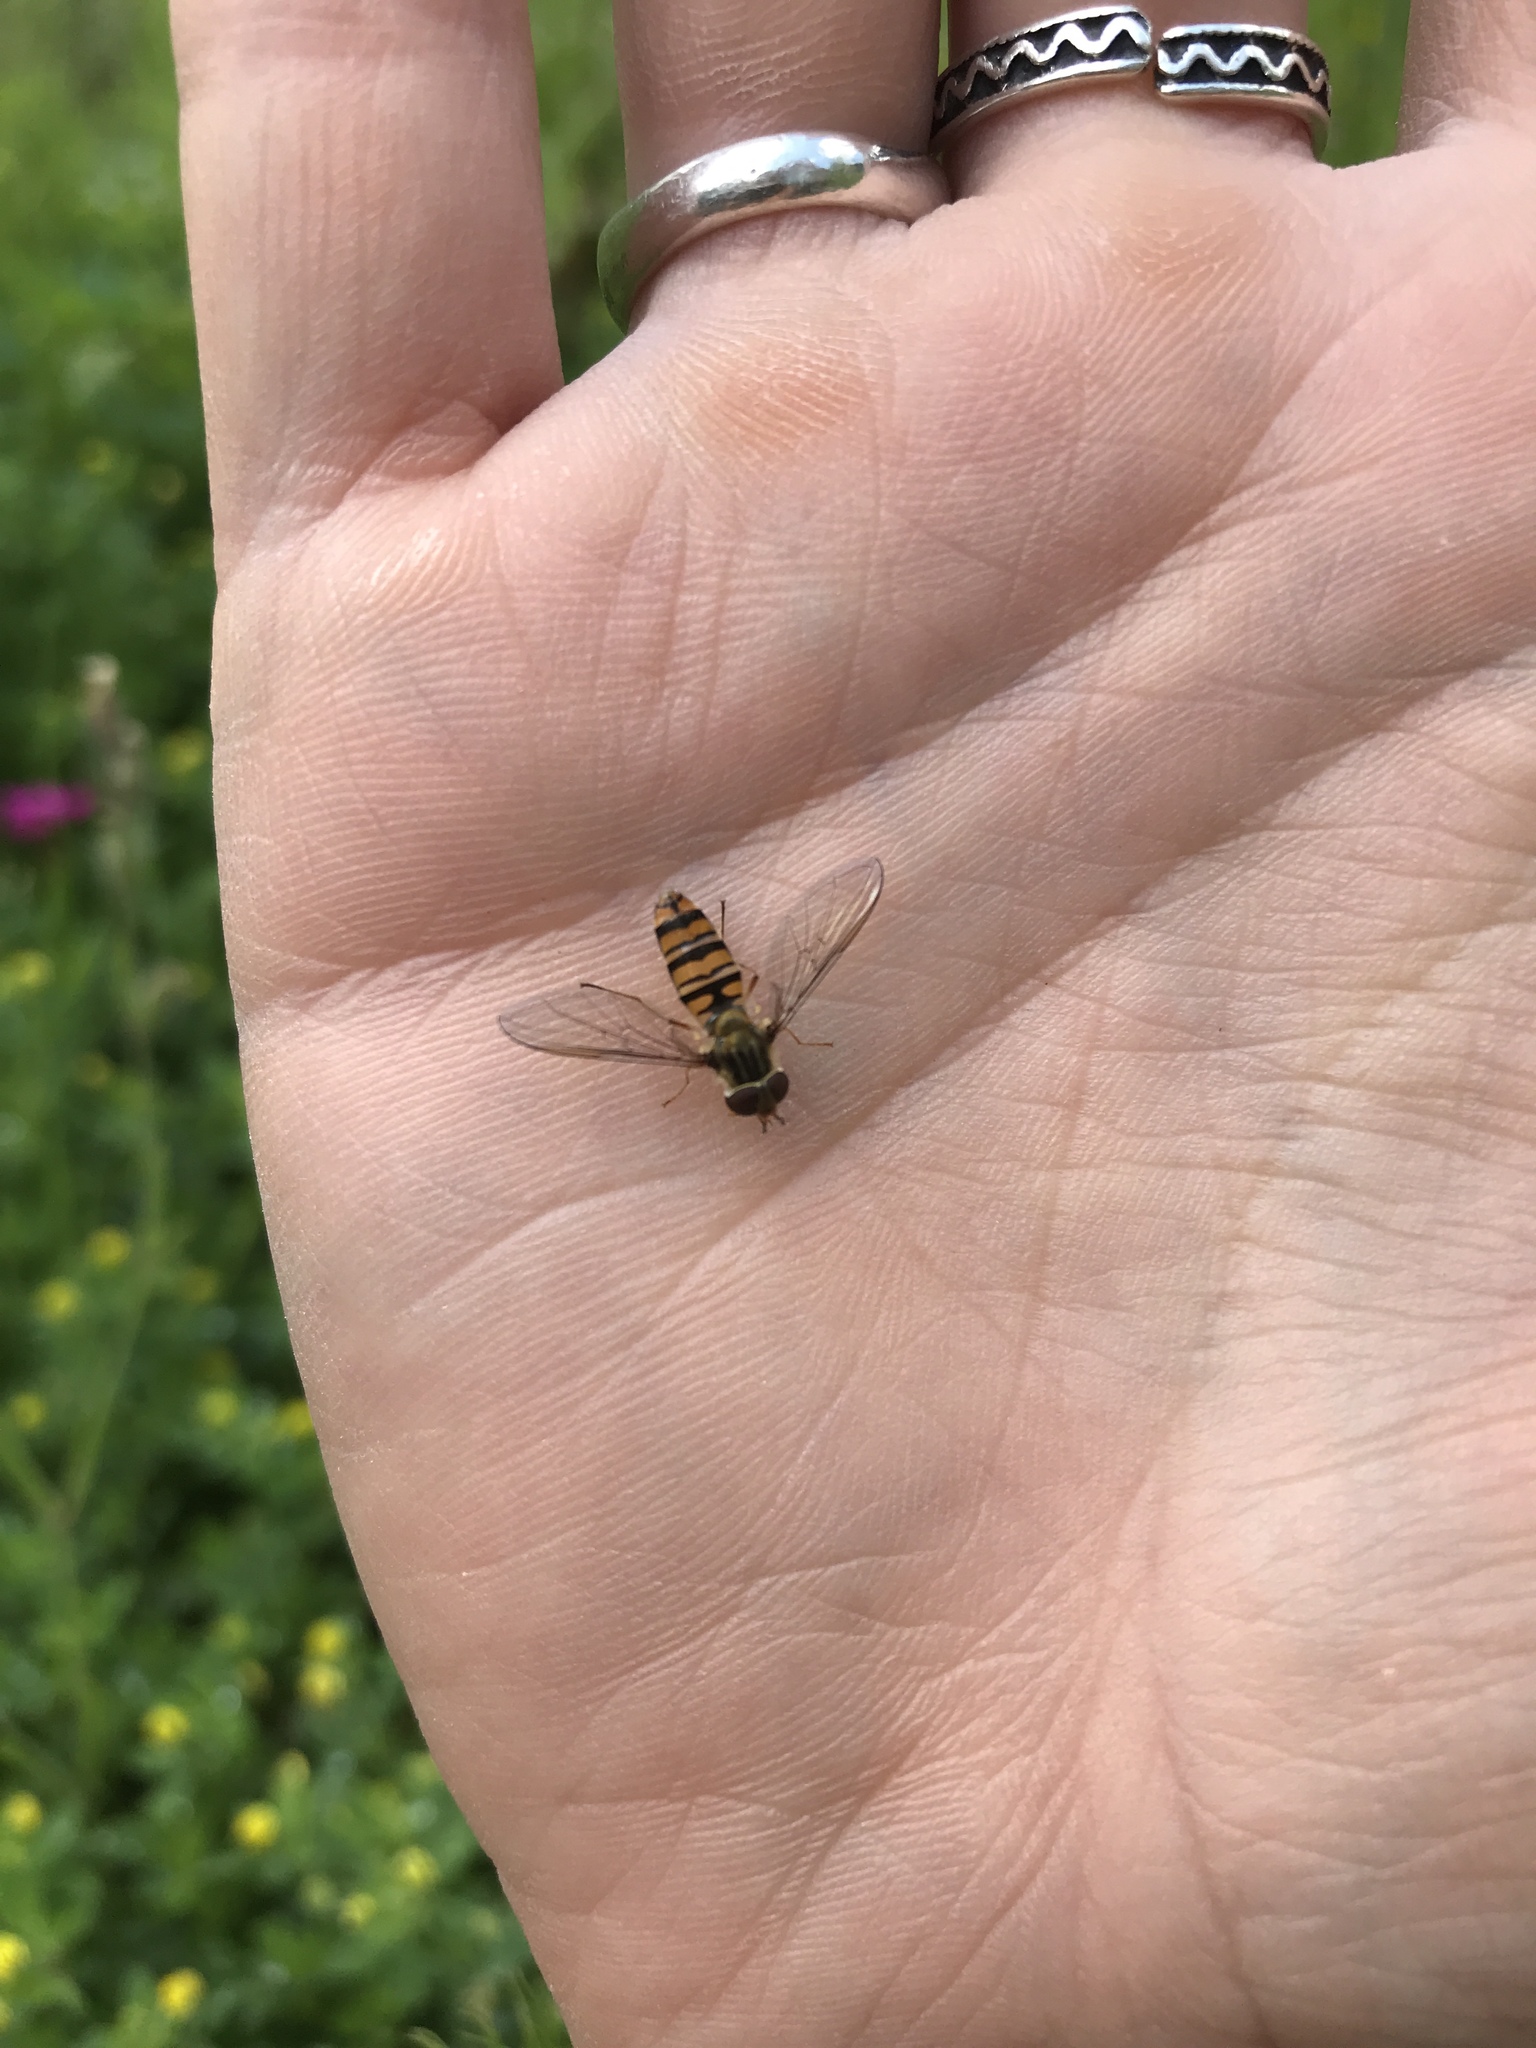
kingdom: Animalia
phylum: Arthropoda
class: Insecta
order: Diptera
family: Syrphidae
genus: Episyrphus
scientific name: Episyrphus balteatus
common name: Marmalade hoverfly
